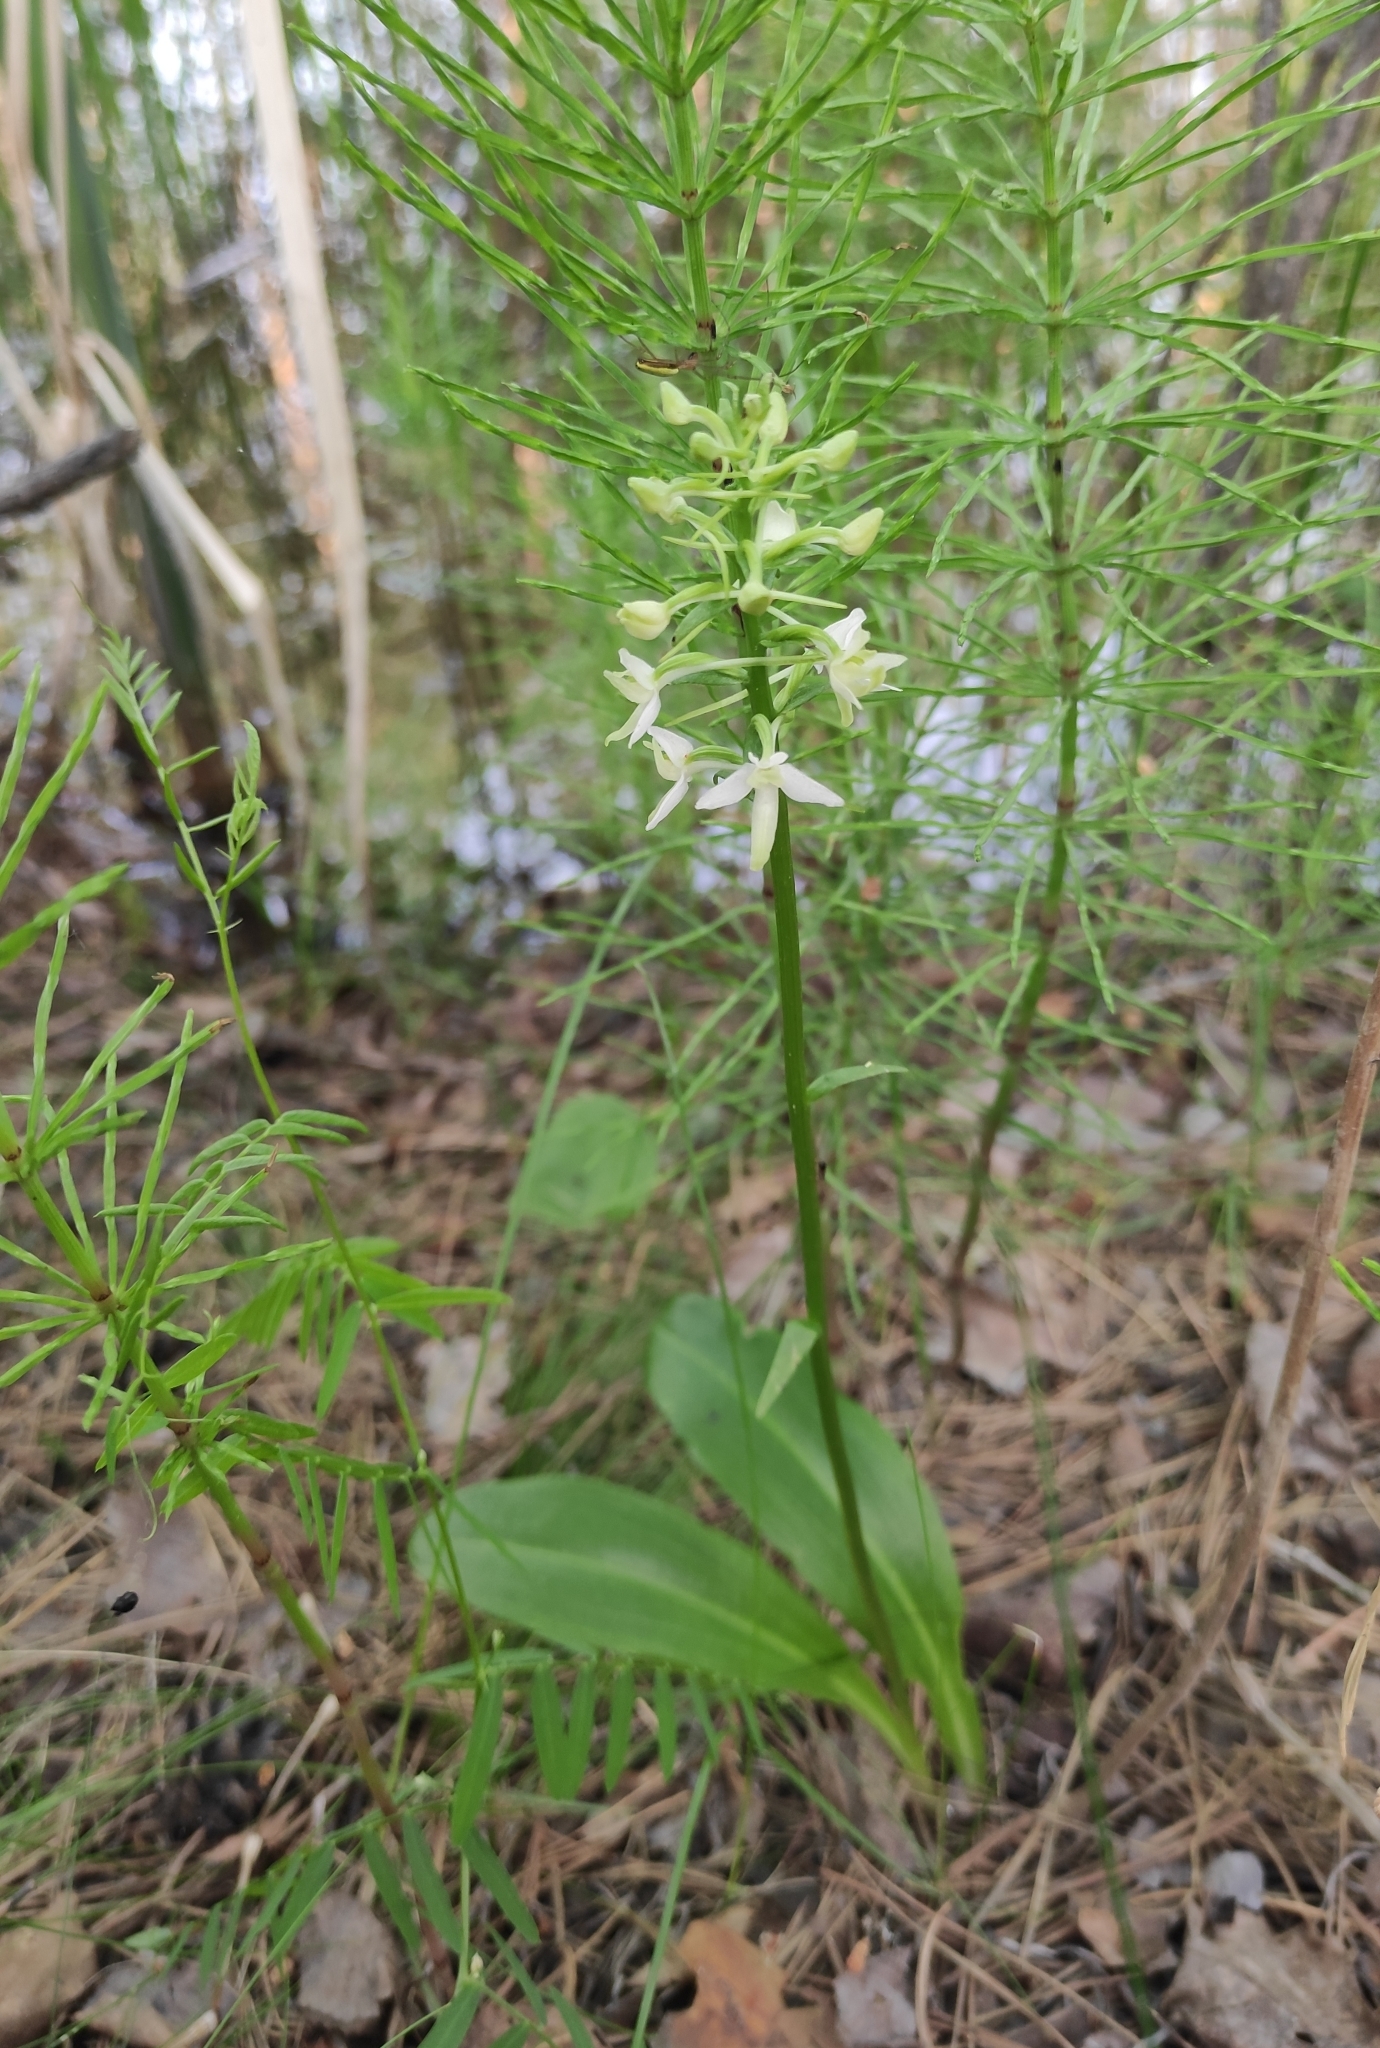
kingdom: Plantae
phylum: Tracheophyta
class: Liliopsida
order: Asparagales
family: Orchidaceae
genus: Platanthera
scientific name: Platanthera bifolia
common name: Lesser butterfly-orchid
